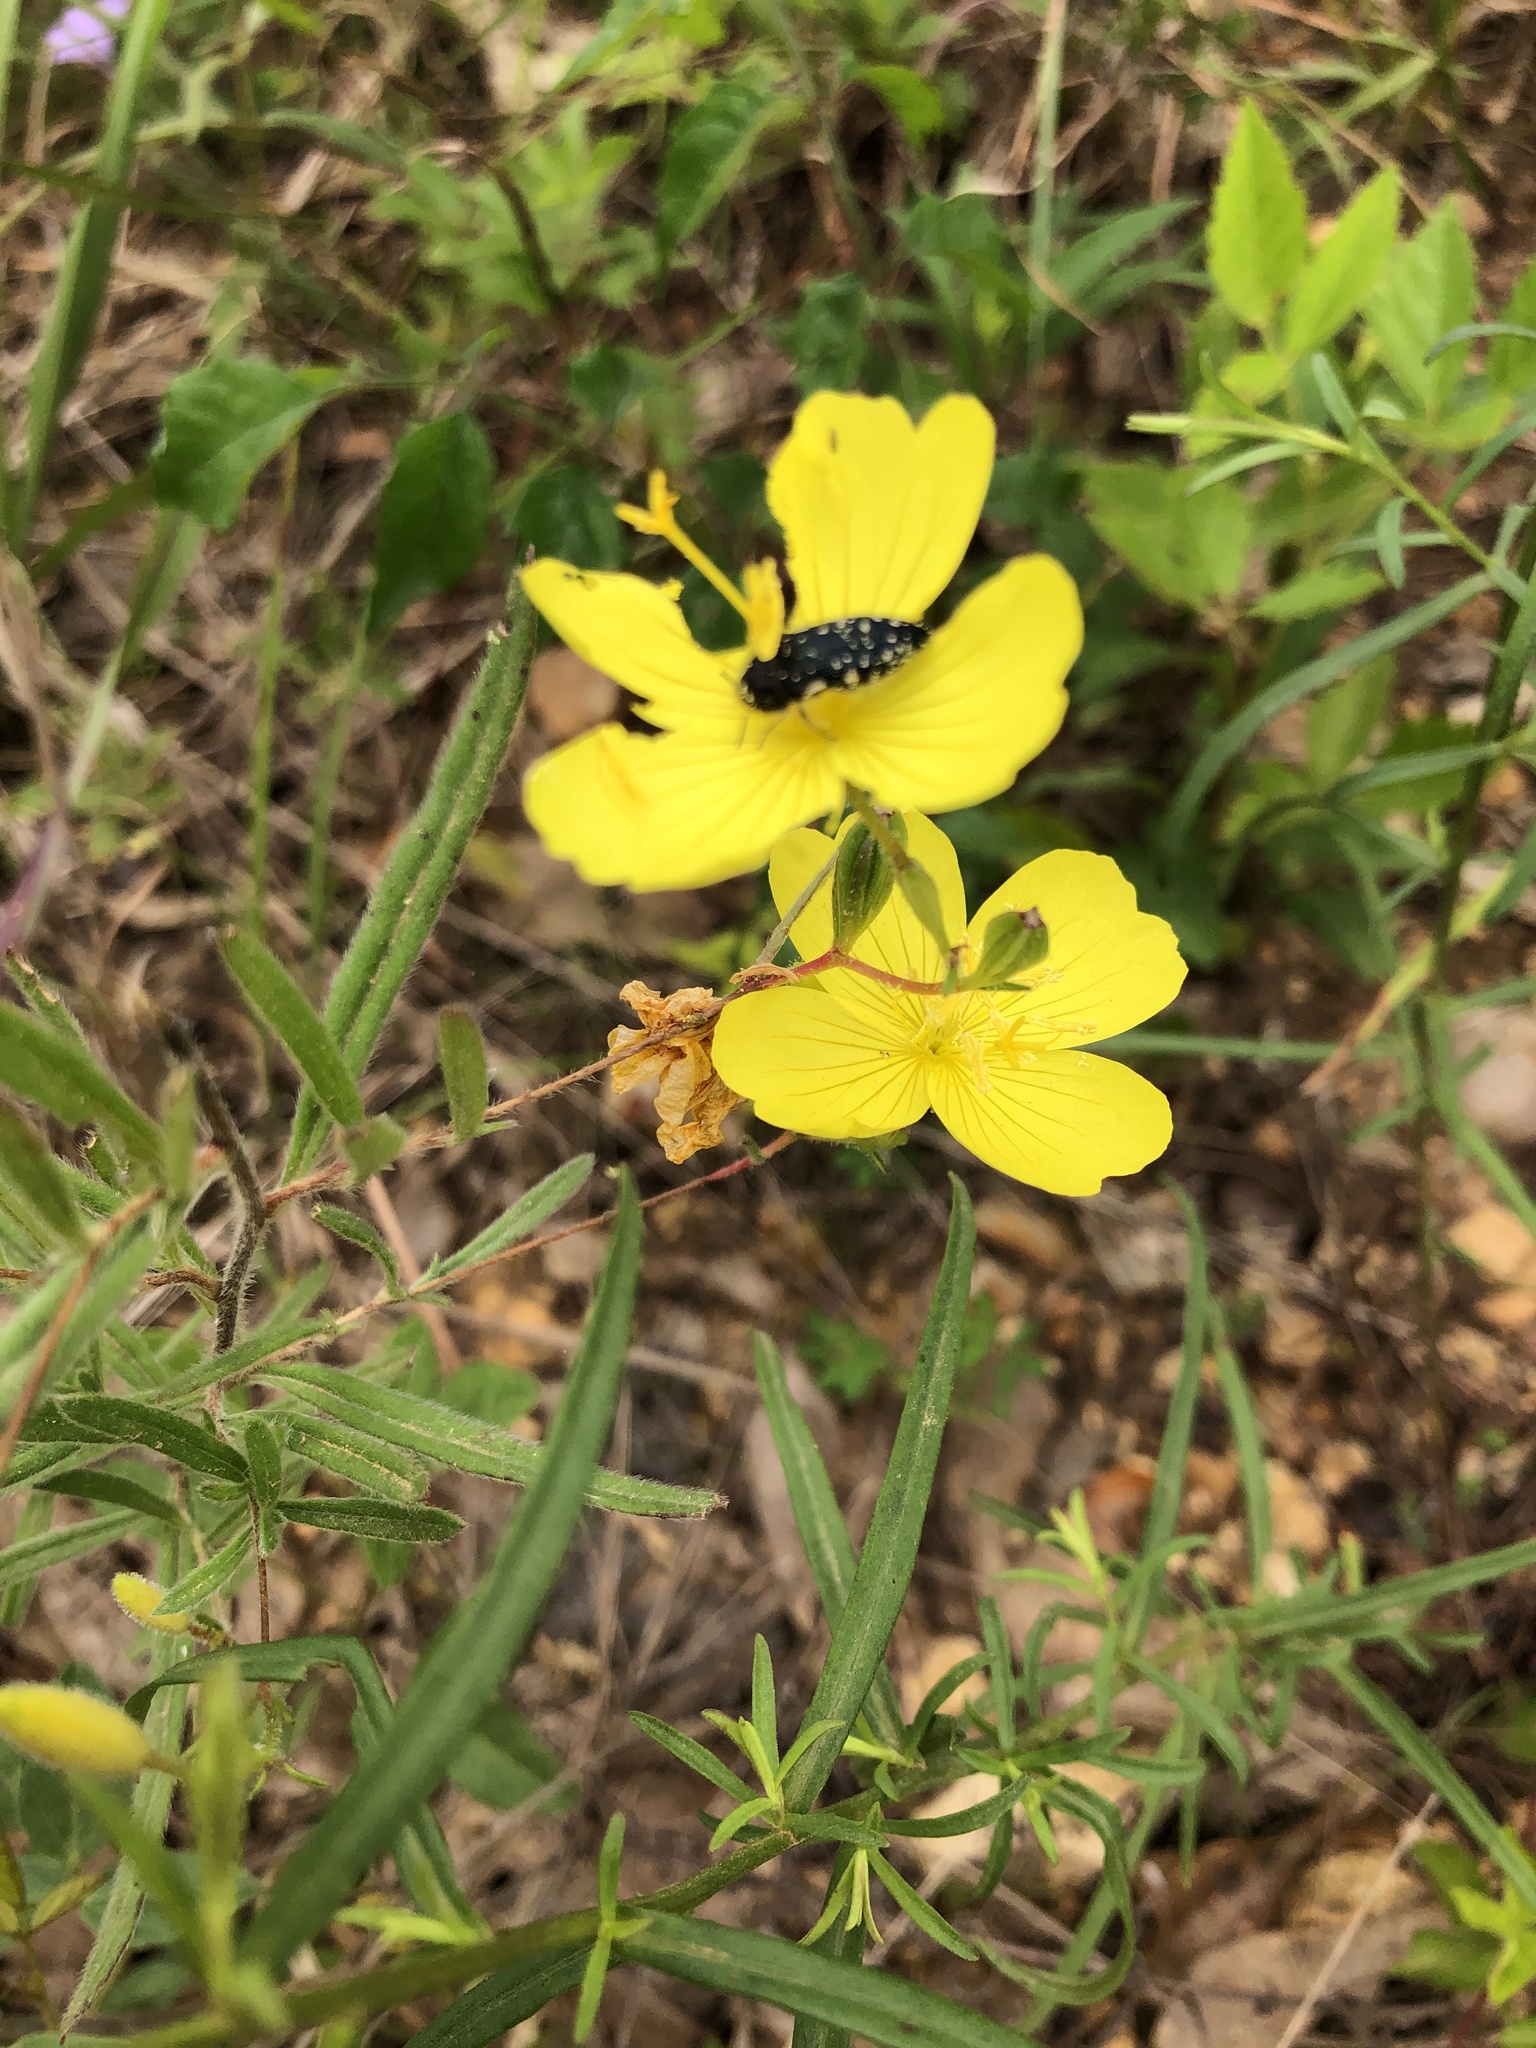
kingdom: Plantae
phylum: Tracheophyta
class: Magnoliopsida
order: Myrtales
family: Onagraceae
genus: Oenothera
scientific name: Oenothera fruticosa
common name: Southern sundrops
